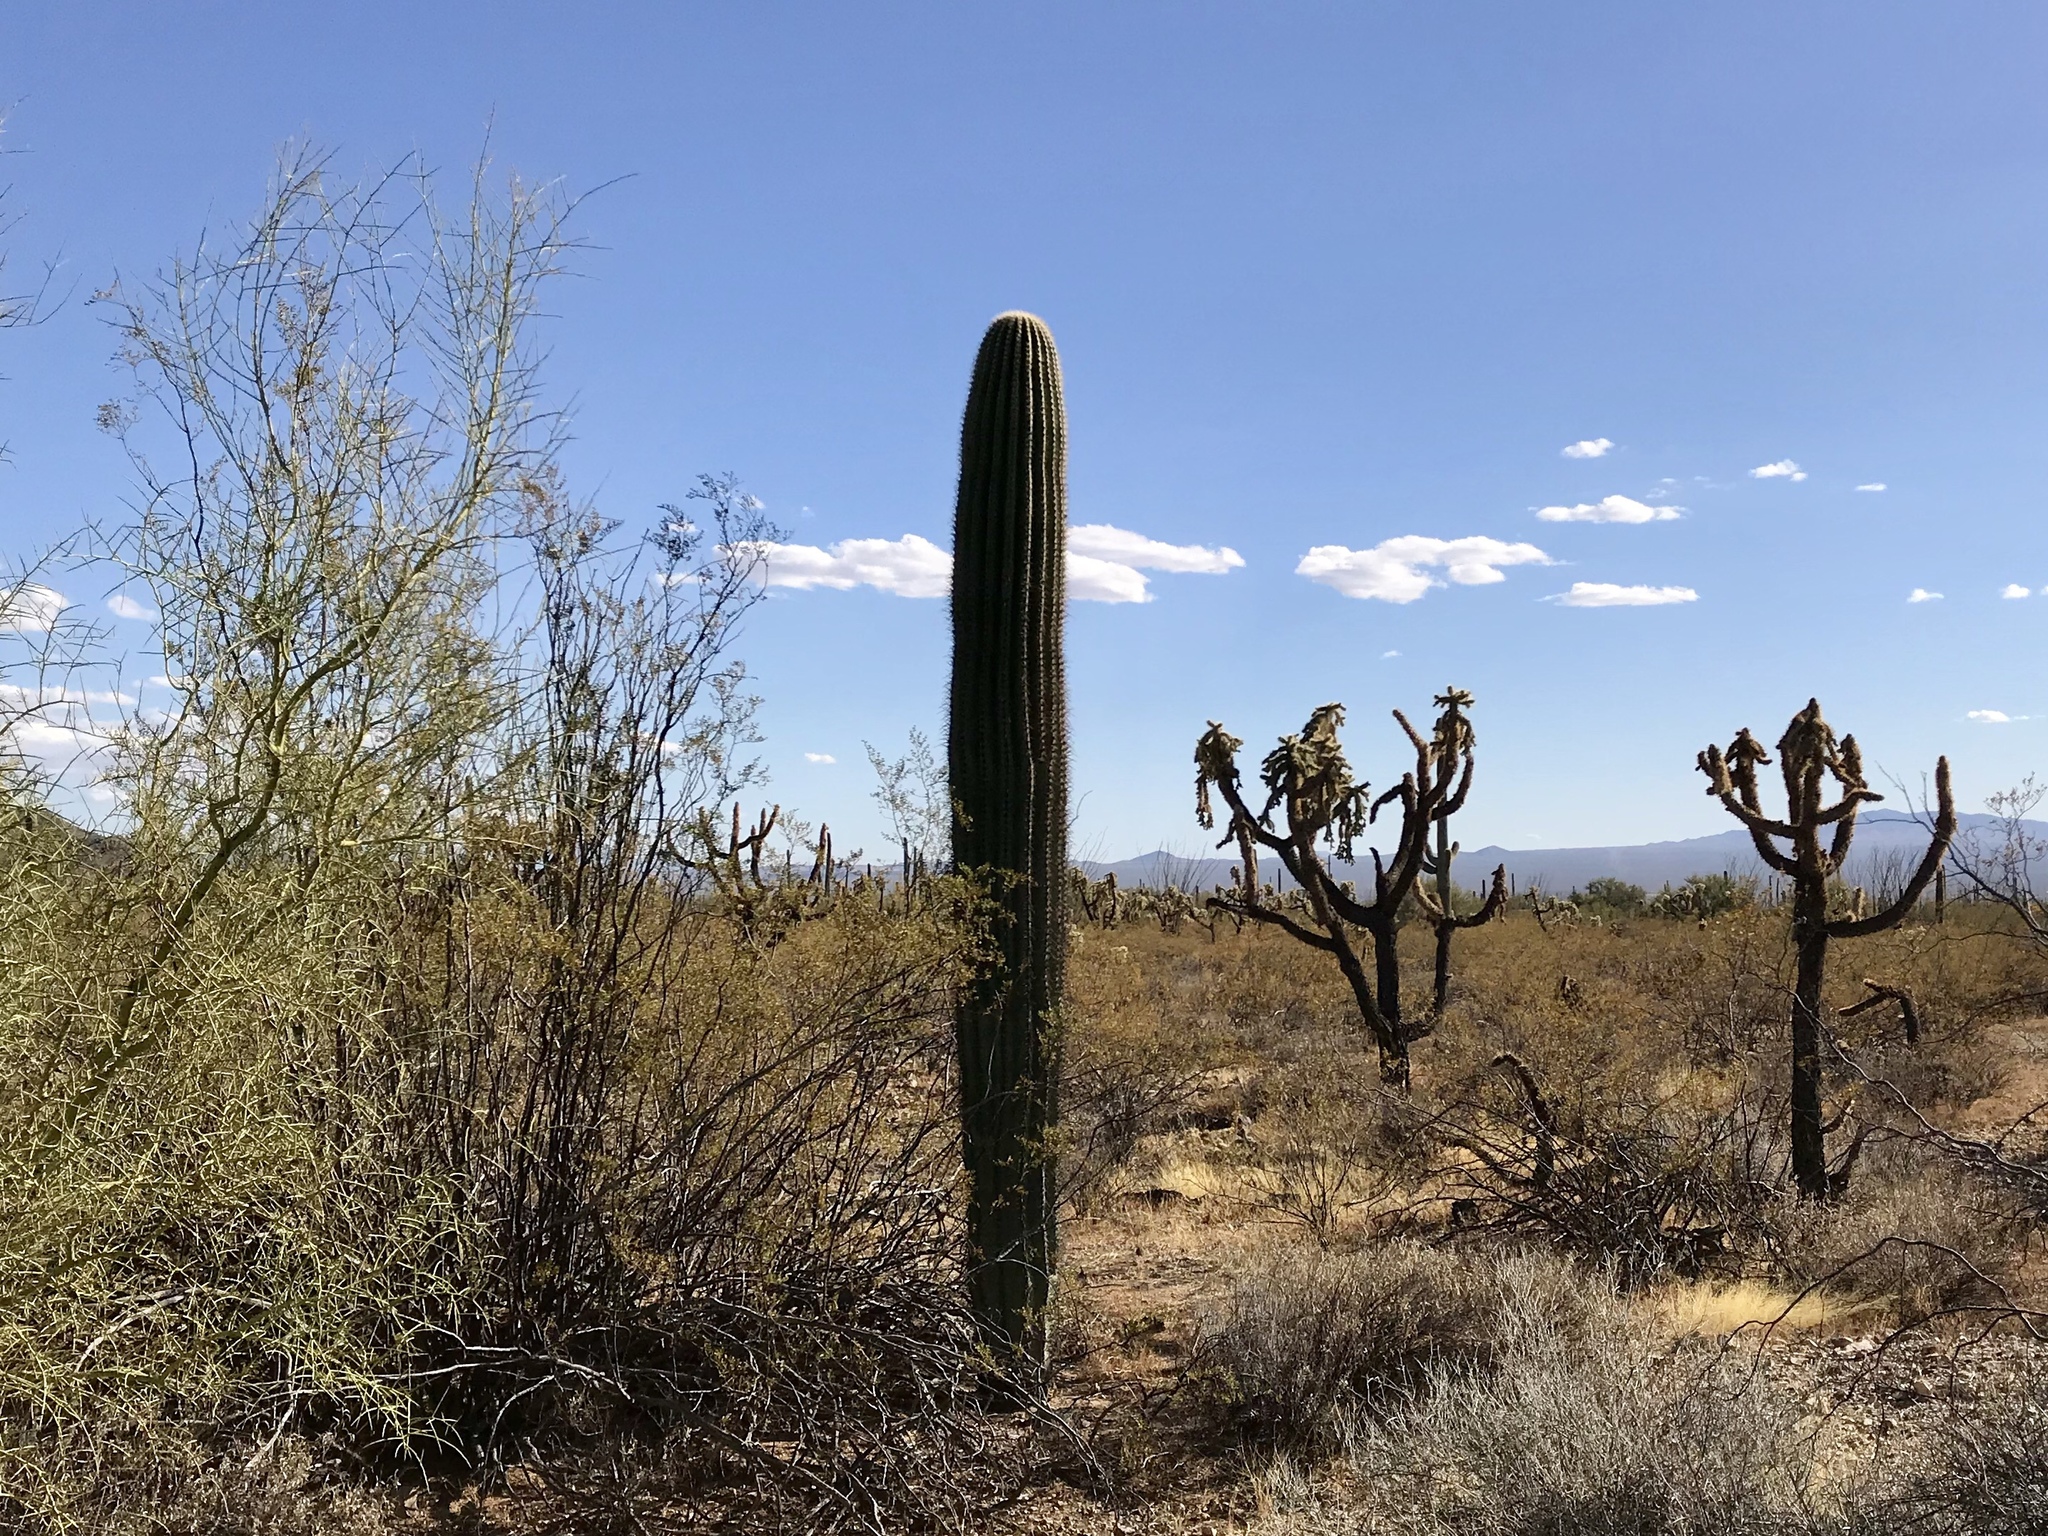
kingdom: Plantae
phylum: Tracheophyta
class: Magnoliopsida
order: Caryophyllales
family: Cactaceae
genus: Carnegiea
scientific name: Carnegiea gigantea
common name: Saguaro
